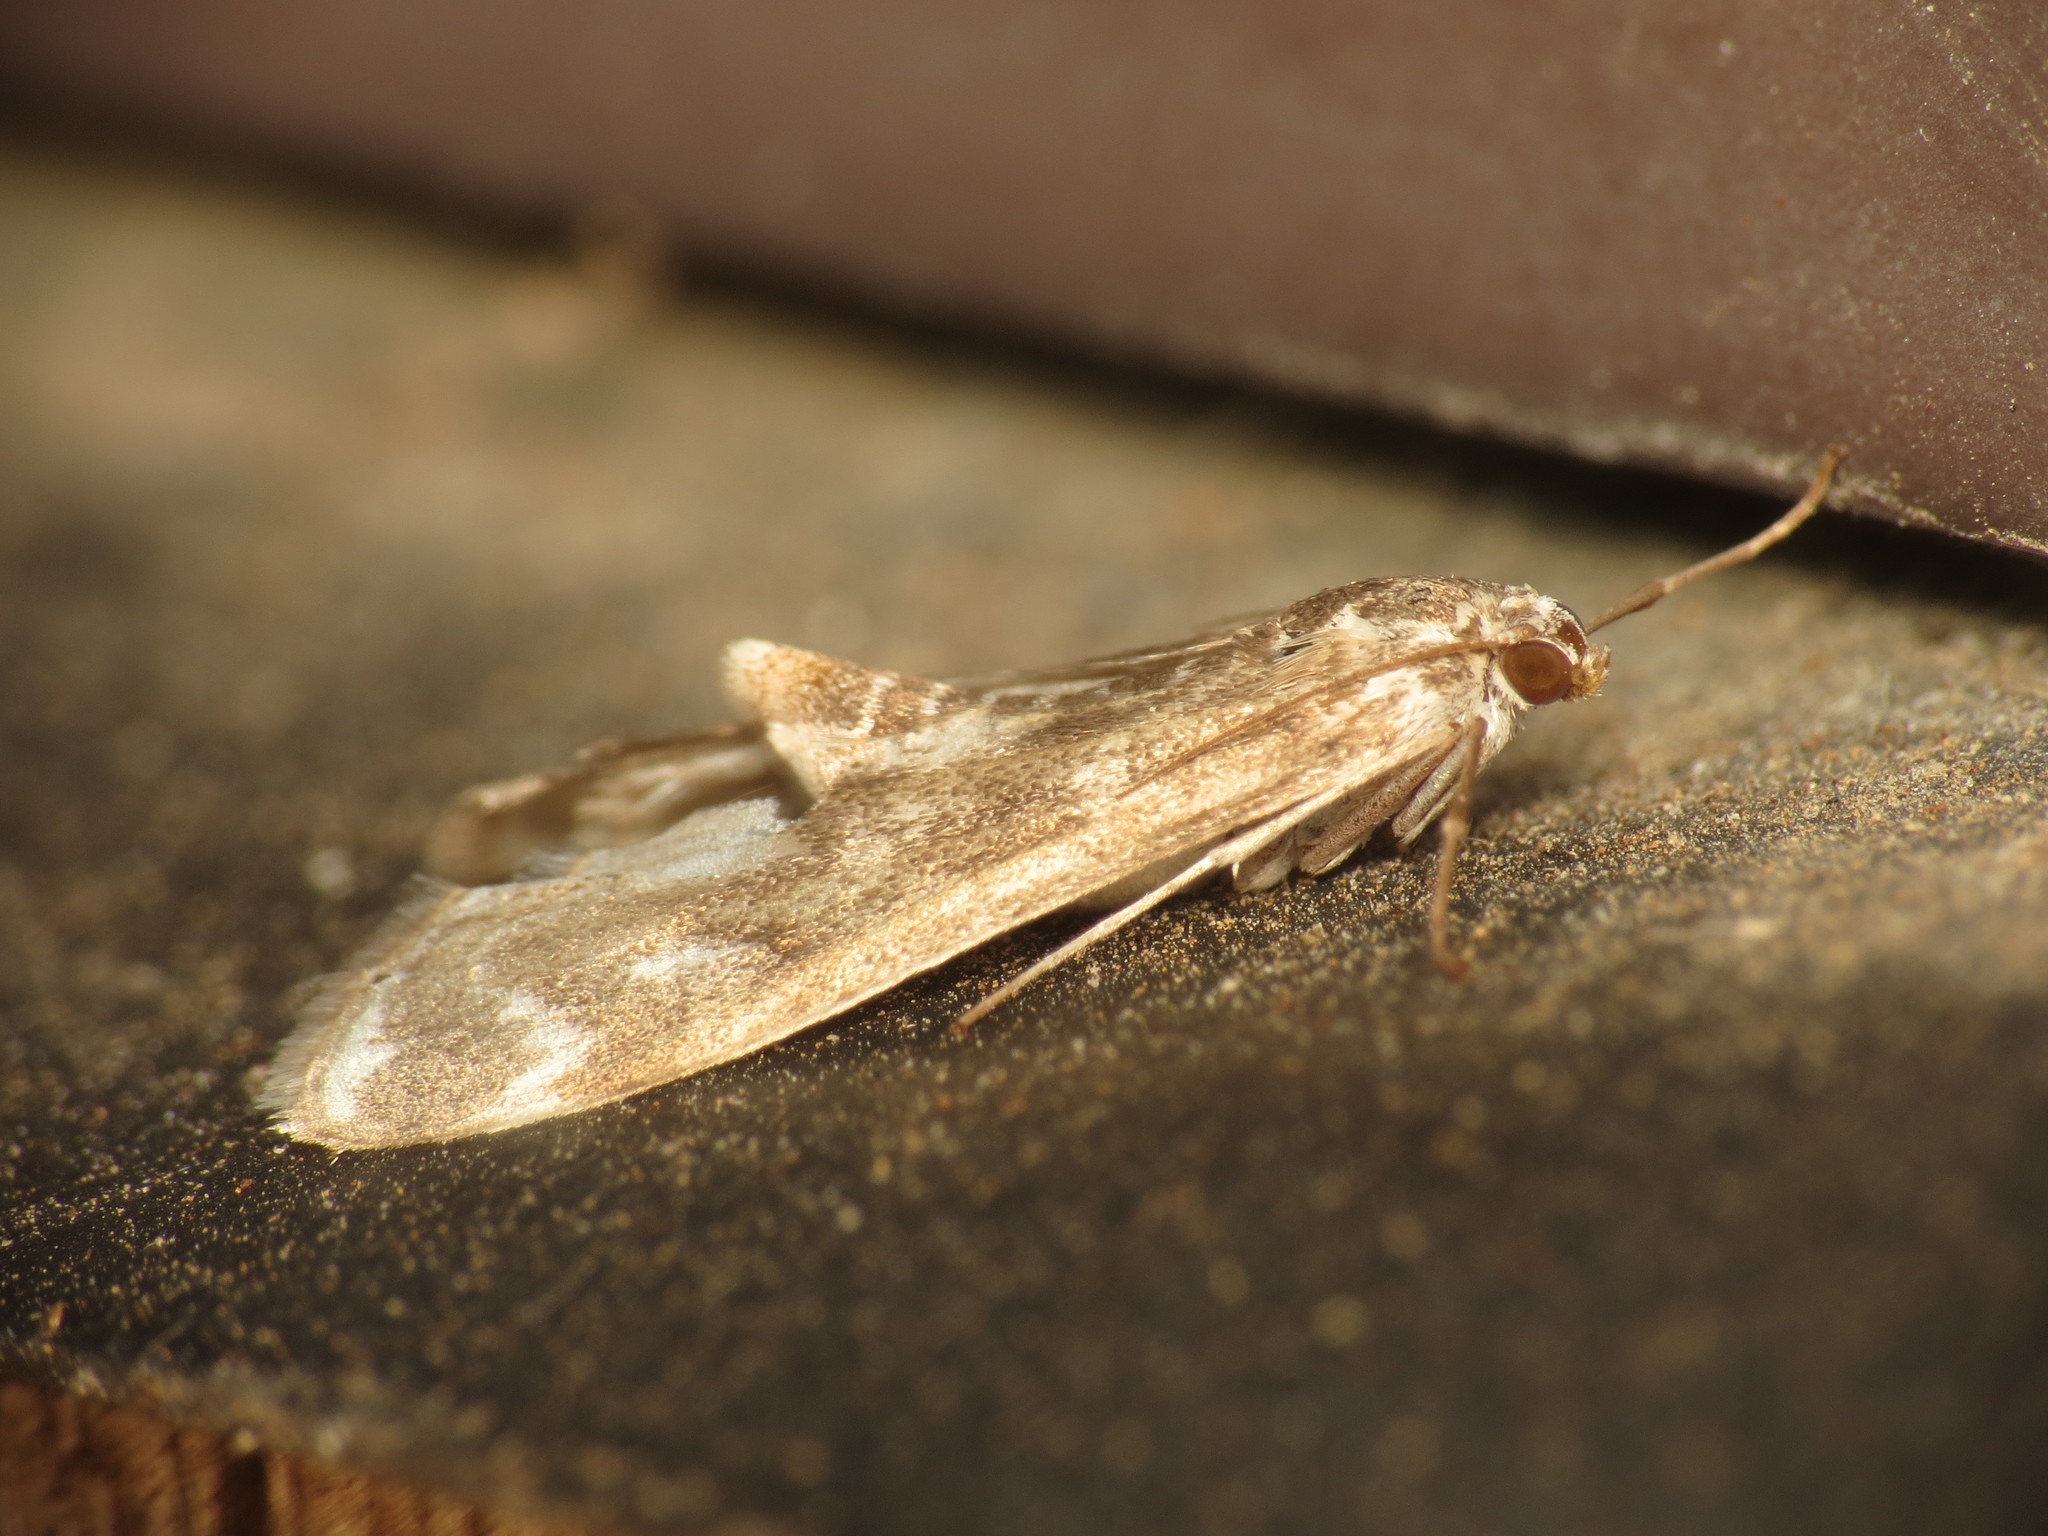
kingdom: Animalia
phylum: Arthropoda
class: Insecta
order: Lepidoptera
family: Crambidae
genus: Hygraula
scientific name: Hygraula nitens
